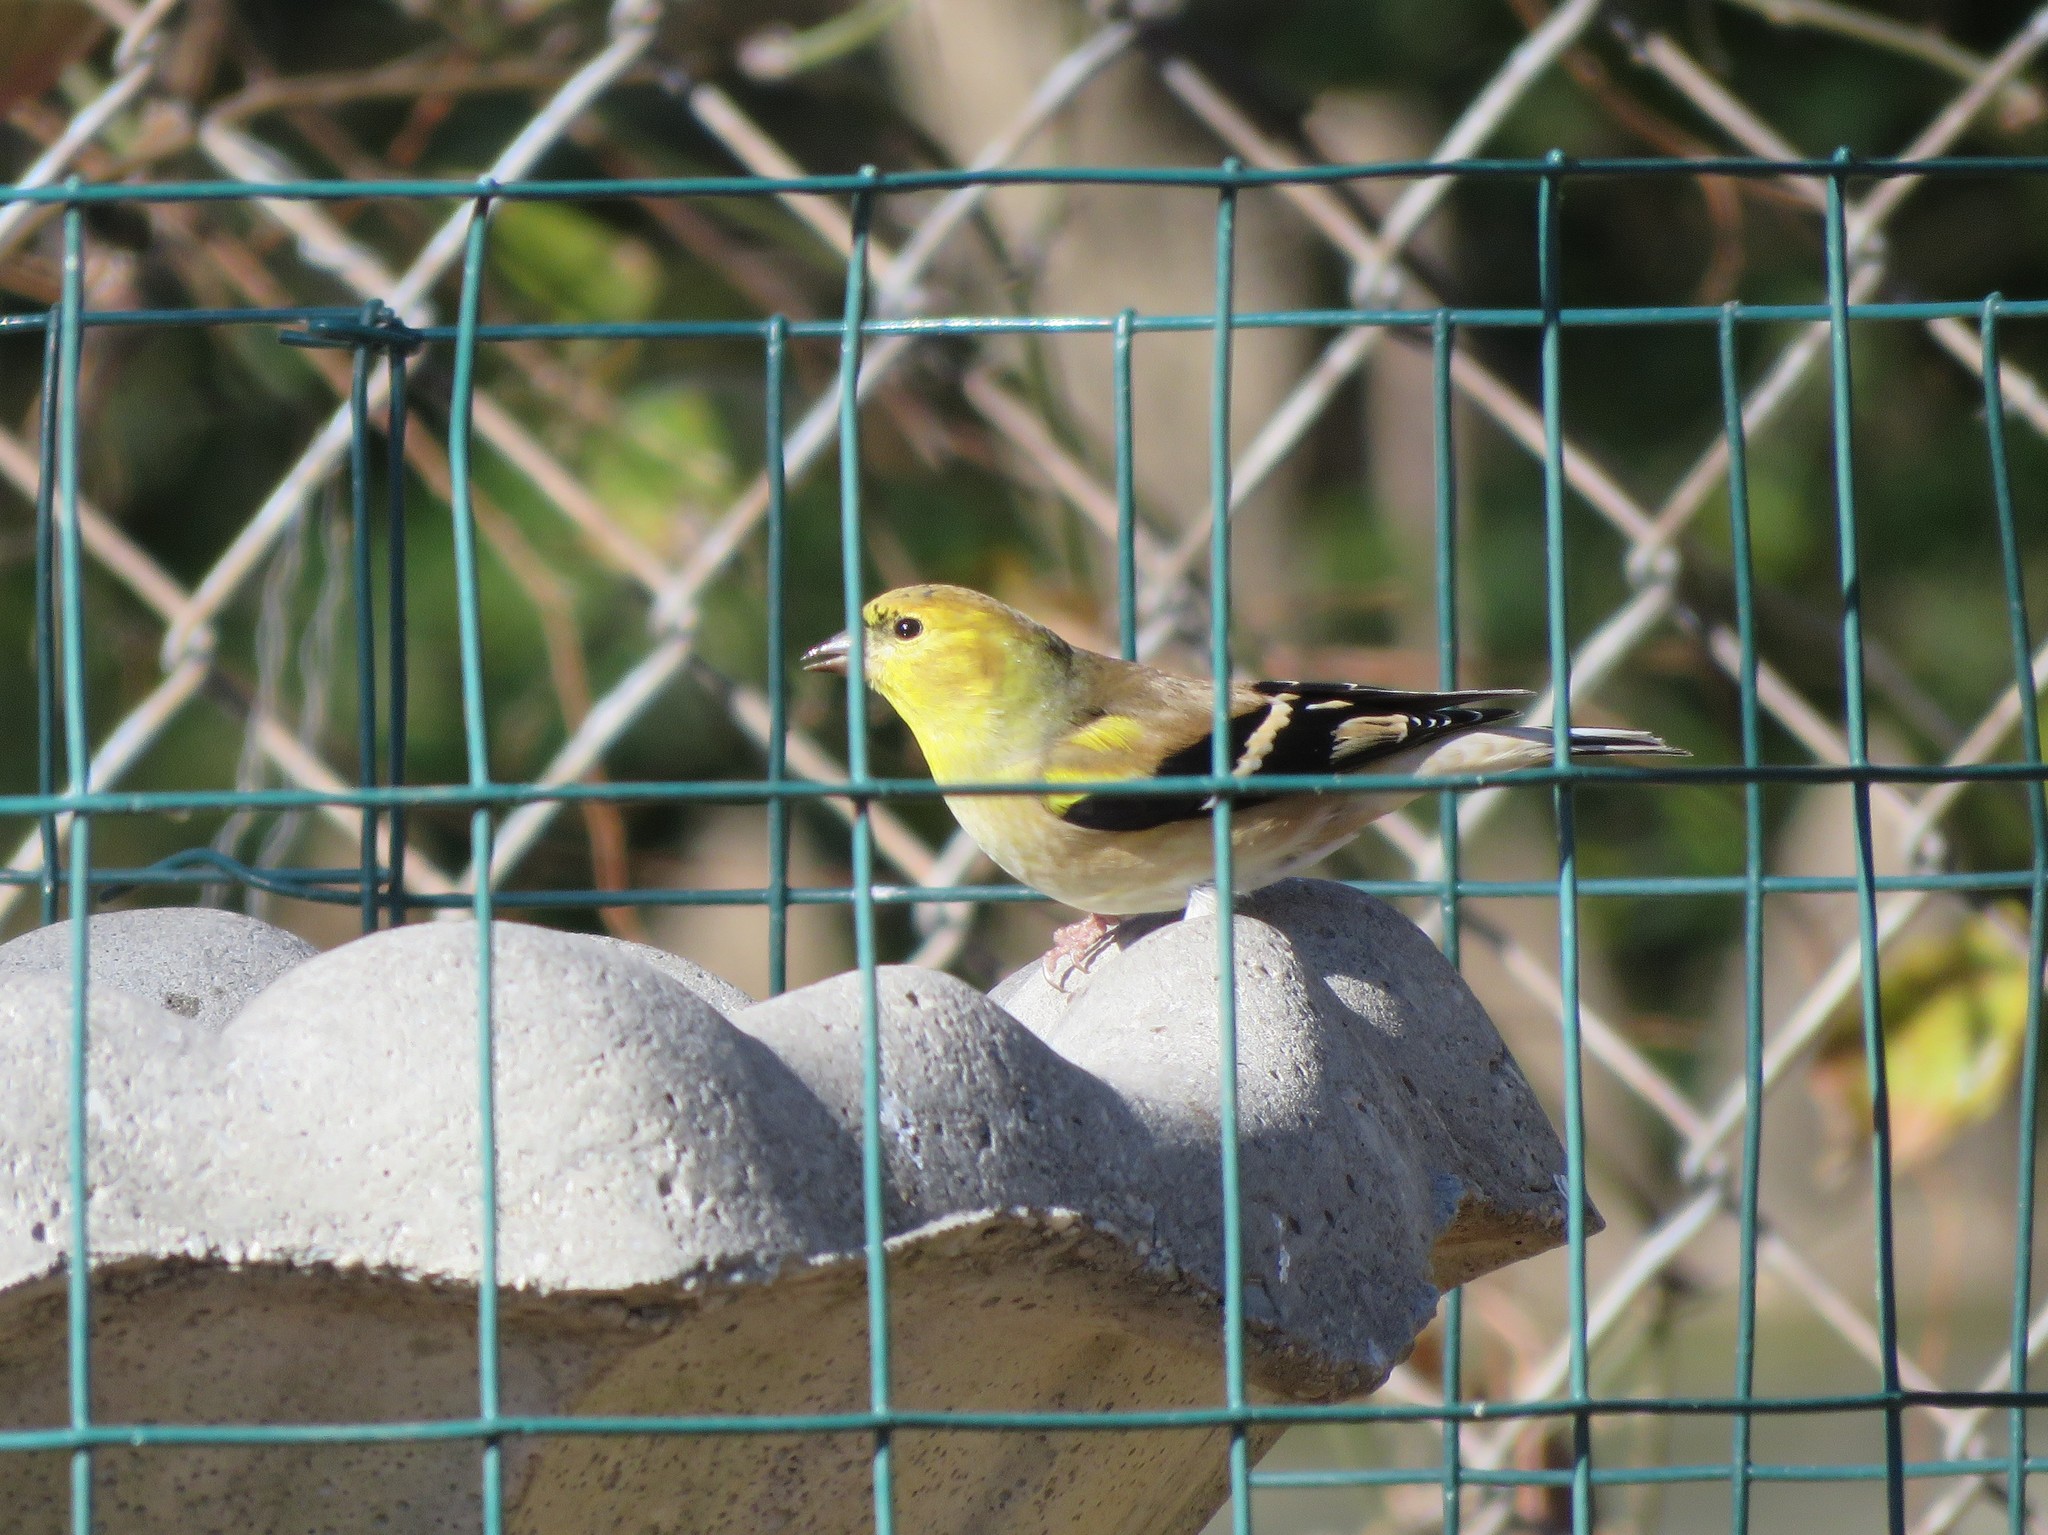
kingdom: Animalia
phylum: Chordata
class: Aves
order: Passeriformes
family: Fringillidae
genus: Spinus
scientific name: Spinus tristis
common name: American goldfinch
